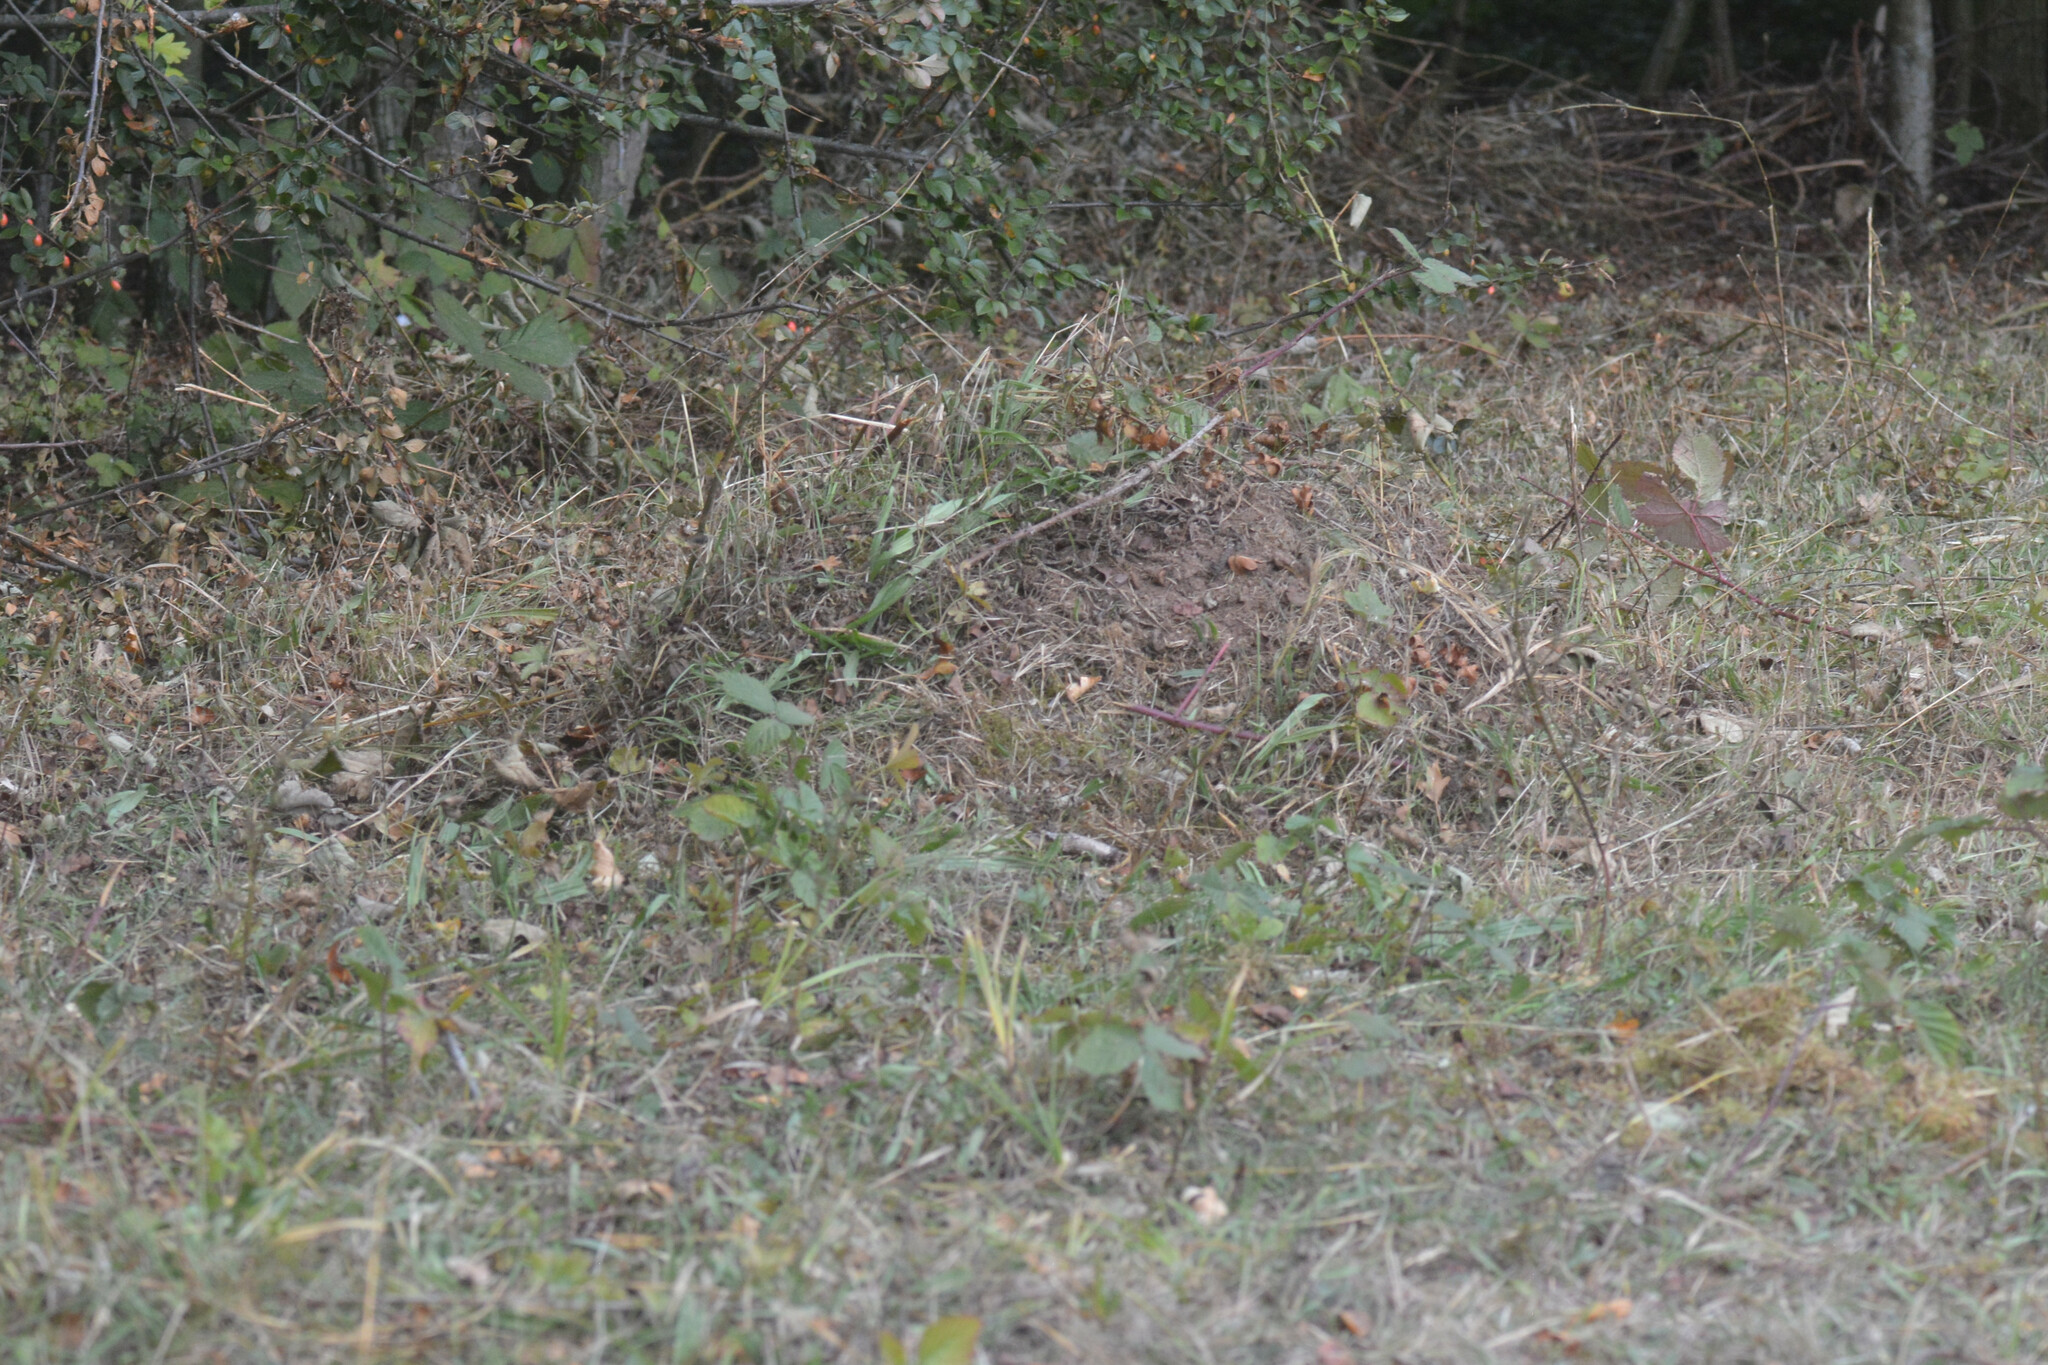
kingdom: Animalia
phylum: Arthropoda
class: Insecta
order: Hymenoptera
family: Formicidae
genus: Lasius
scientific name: Lasius flavus
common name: Blond field ant
